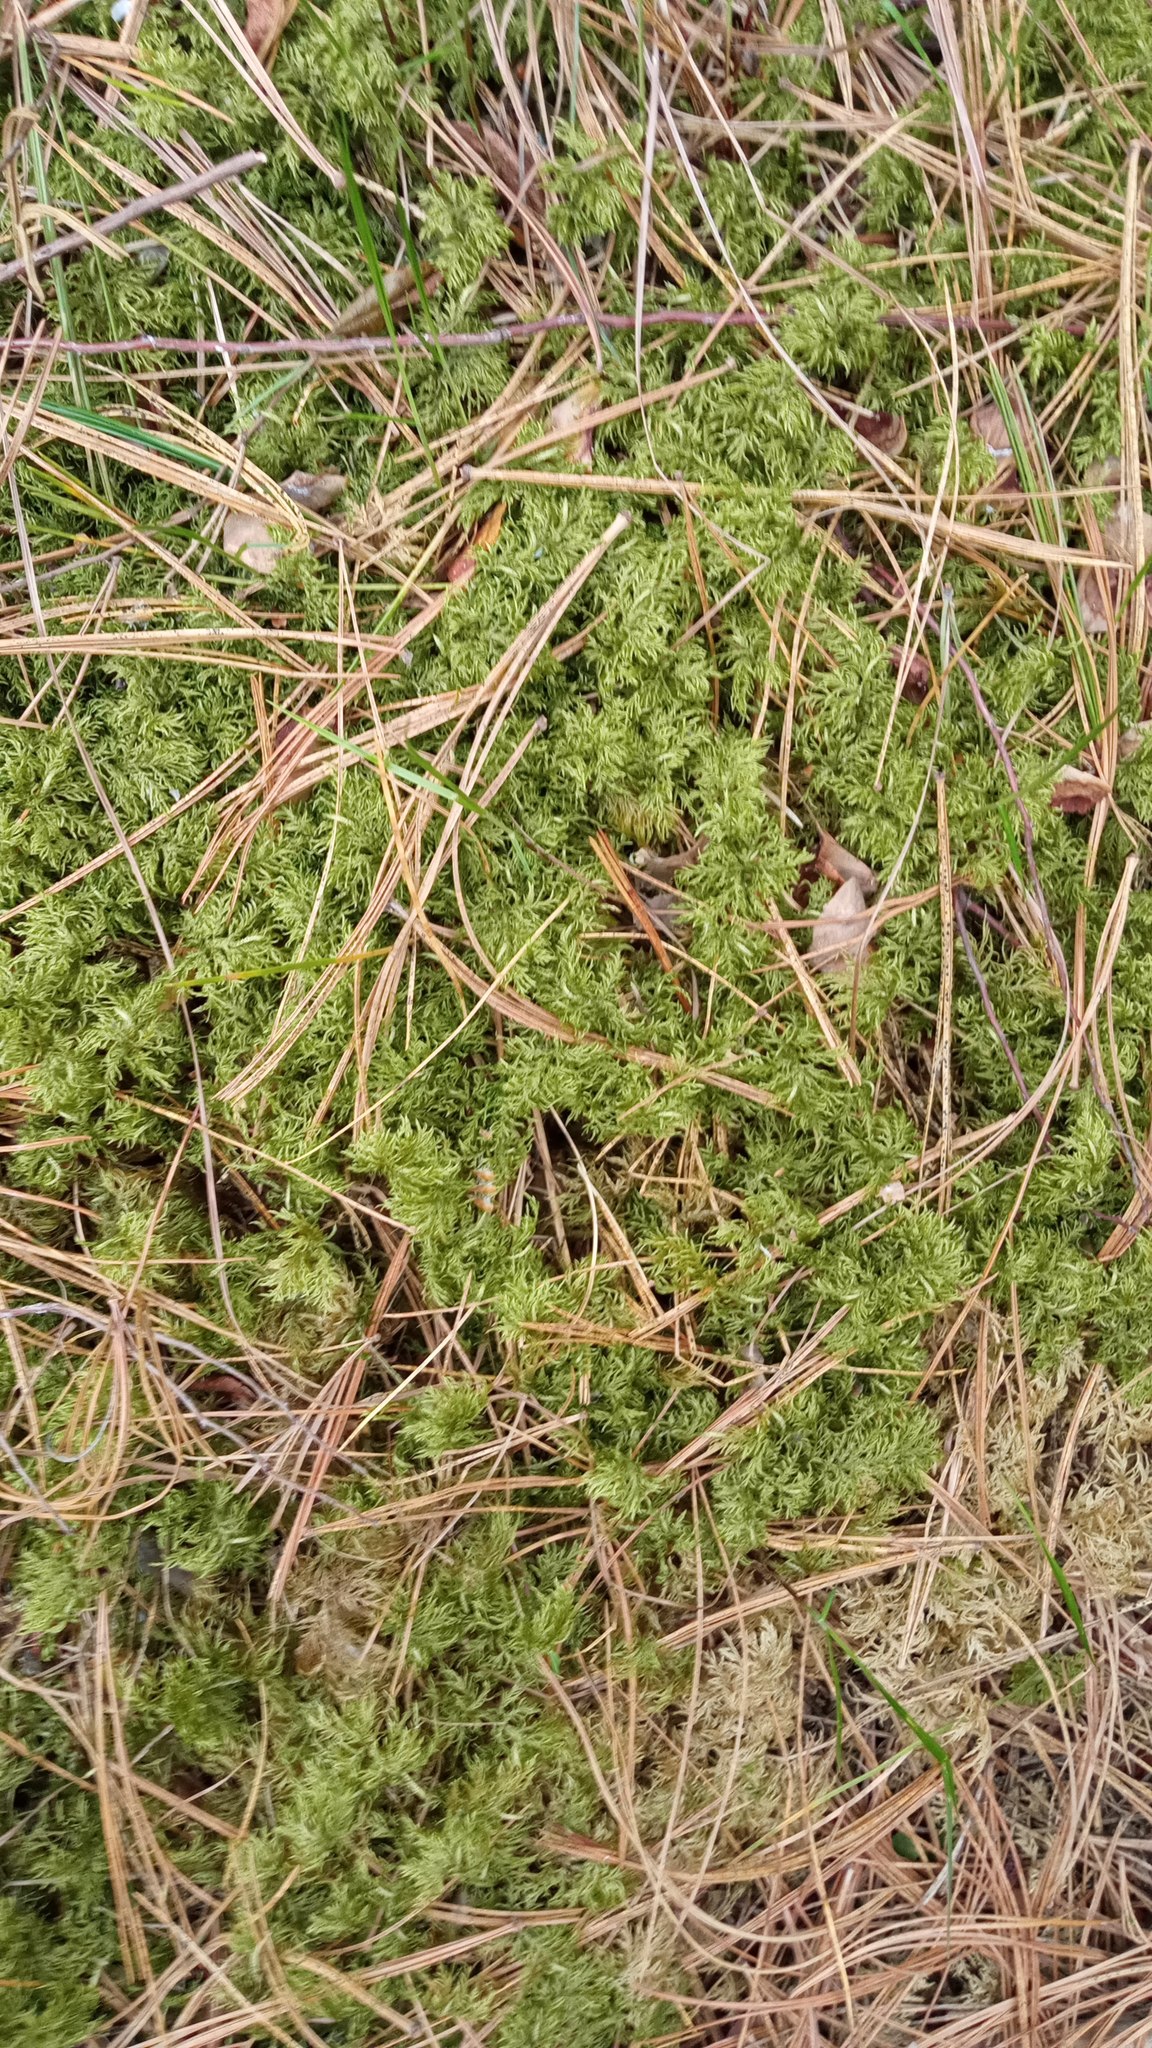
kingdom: Plantae
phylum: Bryophyta
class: Bryopsida
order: Hypnales
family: Hylocomiaceae
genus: Hylocomium
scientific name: Hylocomium splendens
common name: Stairstep moss
